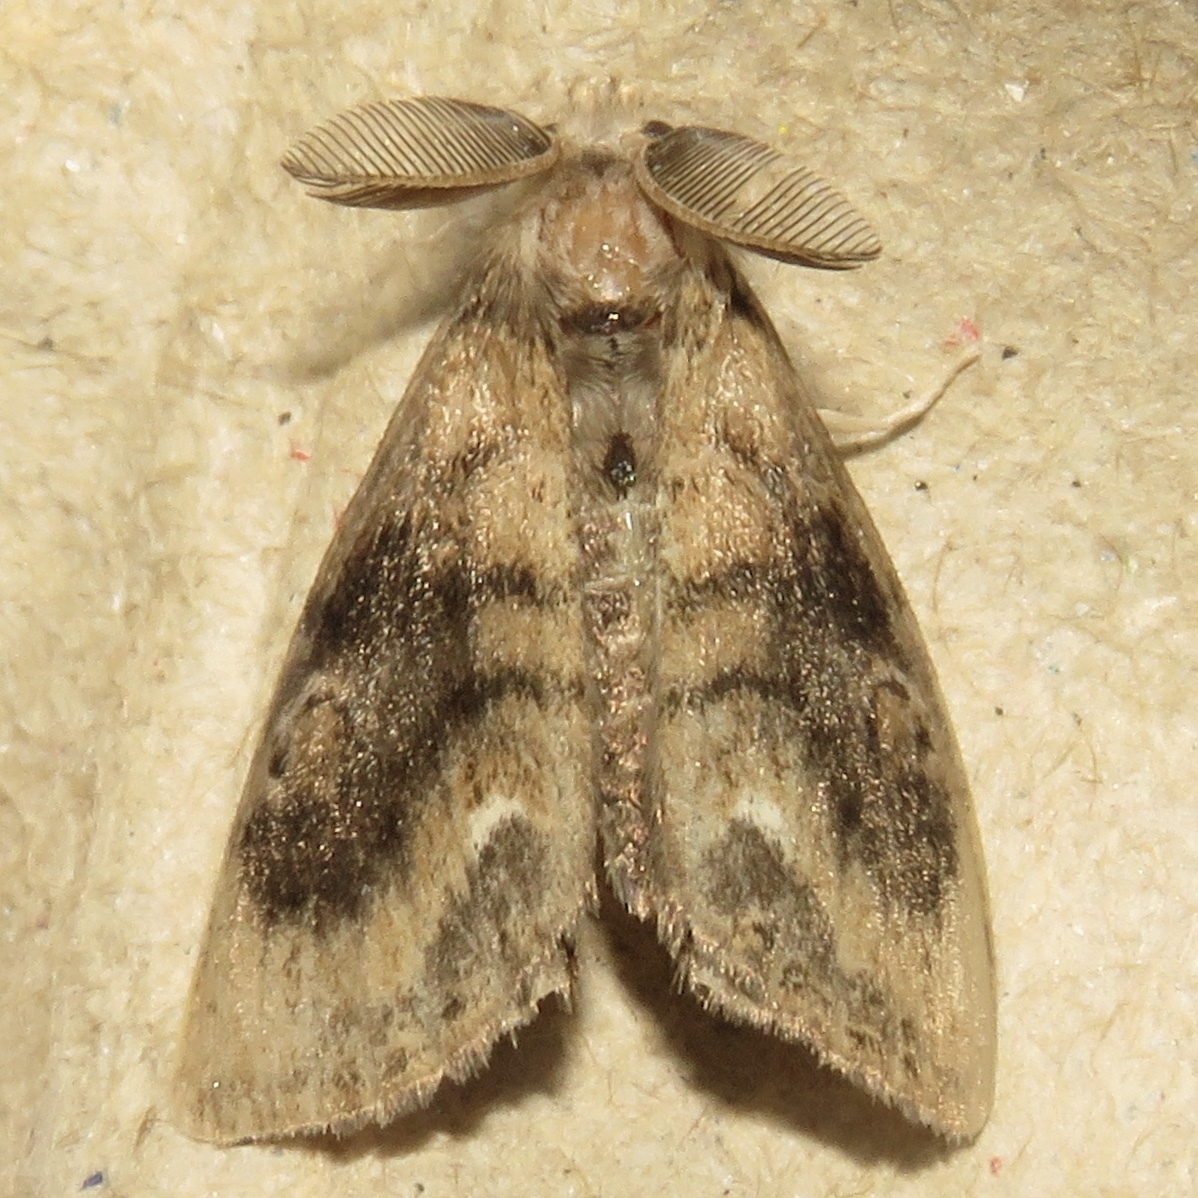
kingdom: Animalia
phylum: Arthropoda
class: Insecta
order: Lepidoptera
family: Erebidae
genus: Orgyia
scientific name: Orgyia definita
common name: Definite tussock moth
